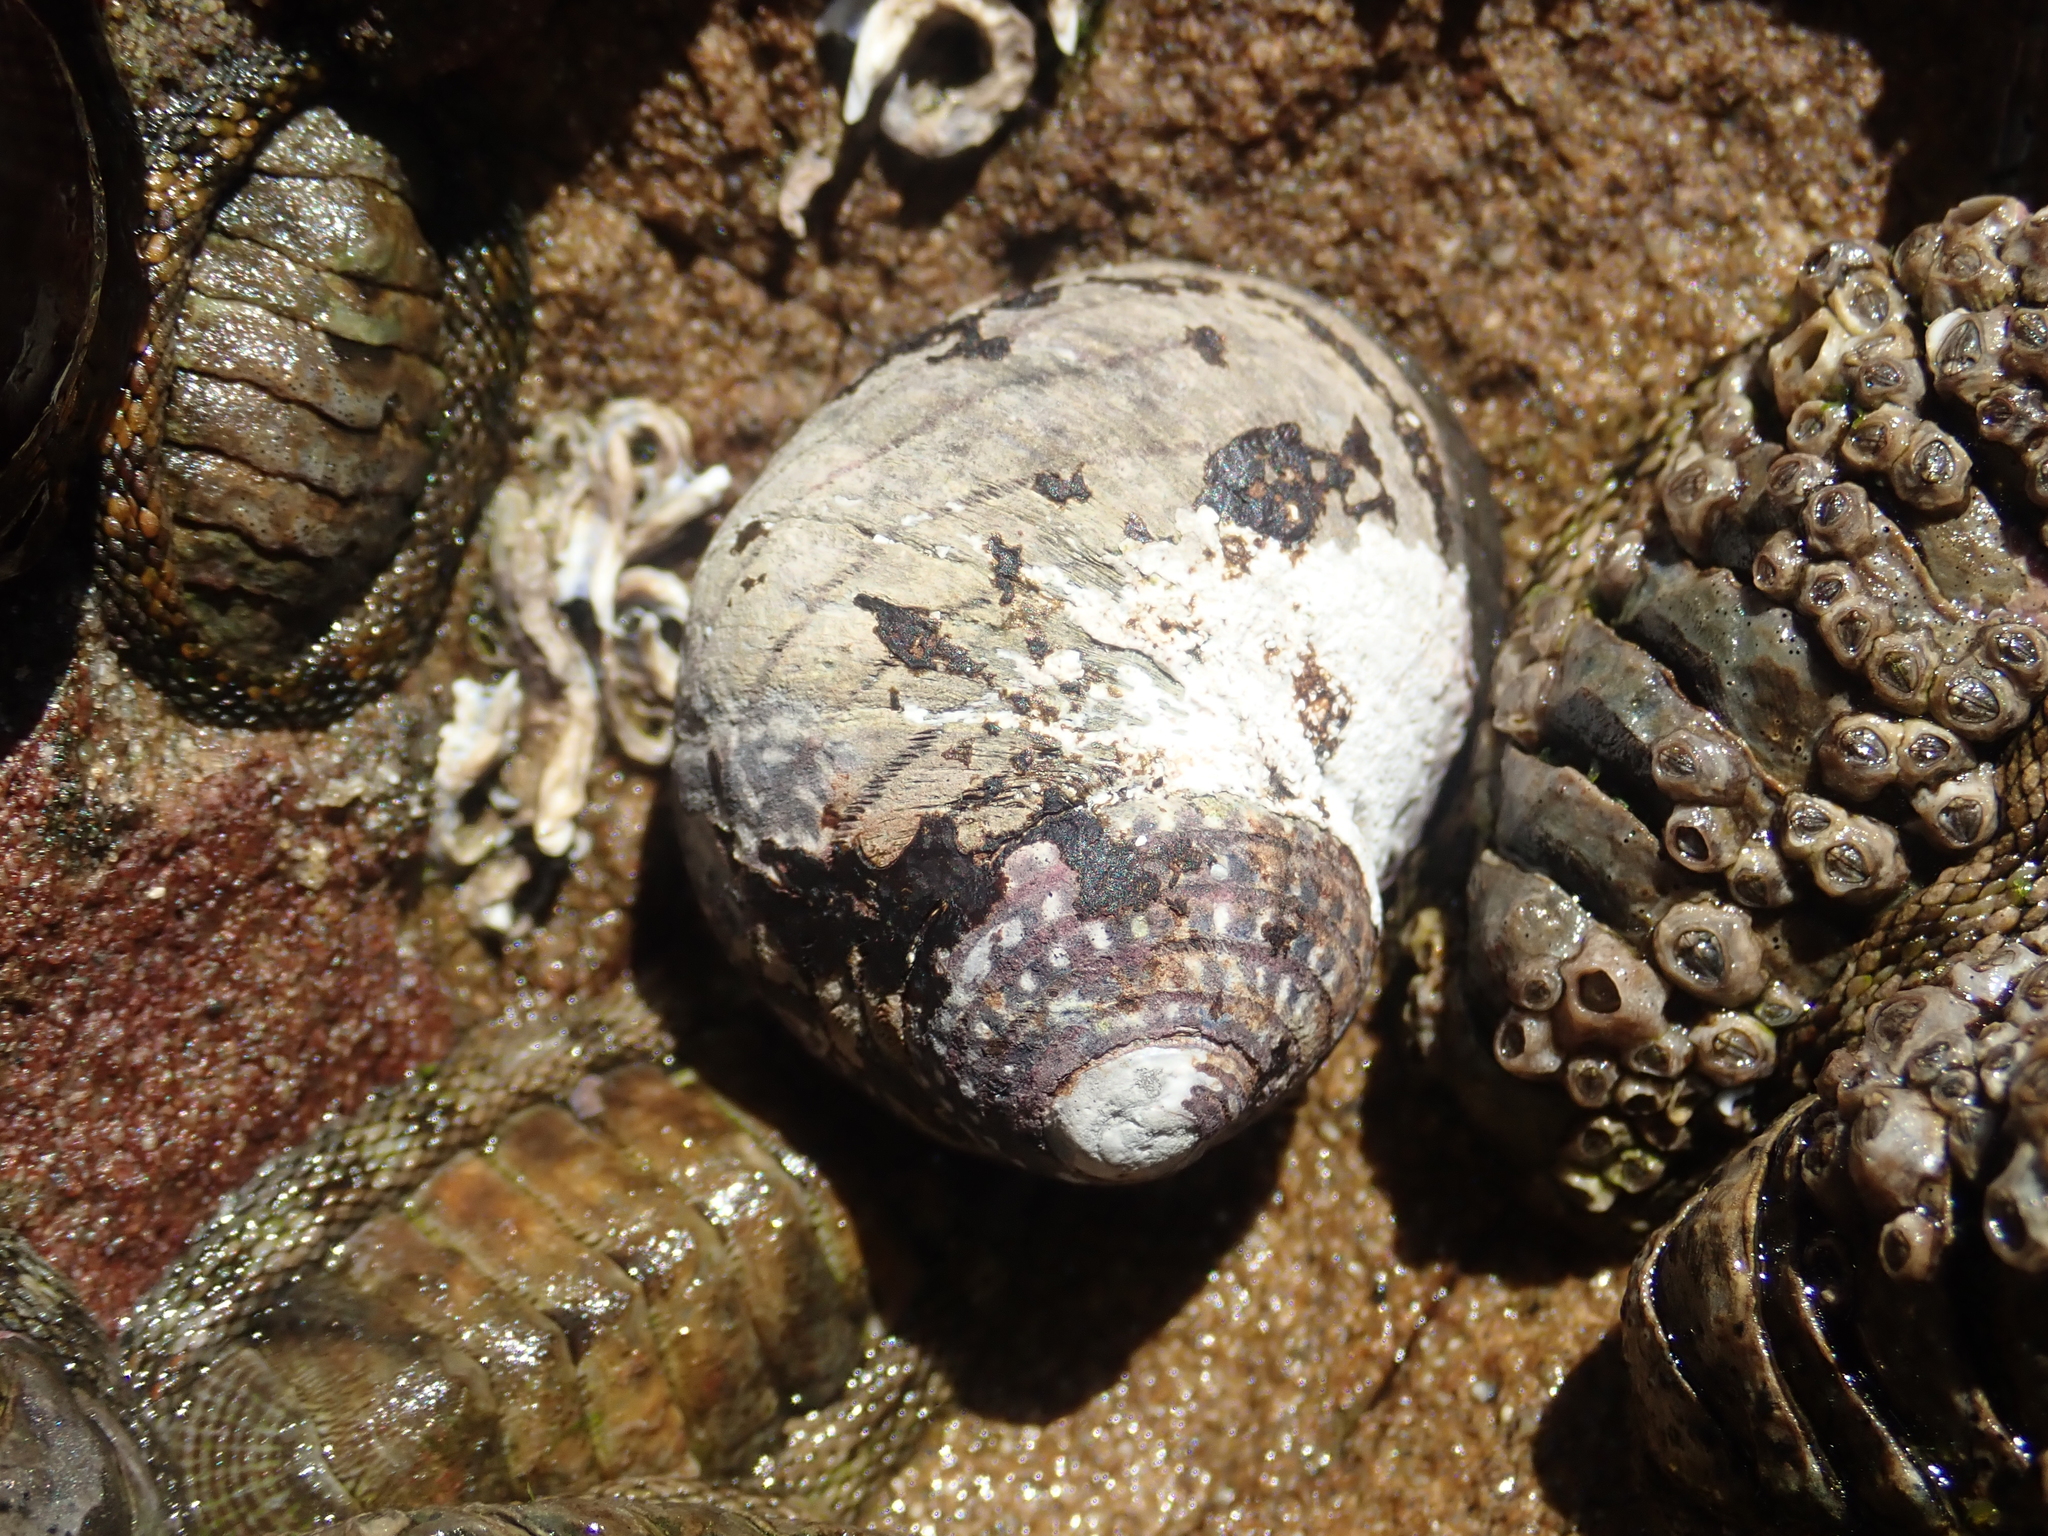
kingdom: Animalia
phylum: Mollusca
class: Gastropoda
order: Trochida
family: Trochidae
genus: Diloma
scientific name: Diloma aethiops
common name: Scorched monodont
